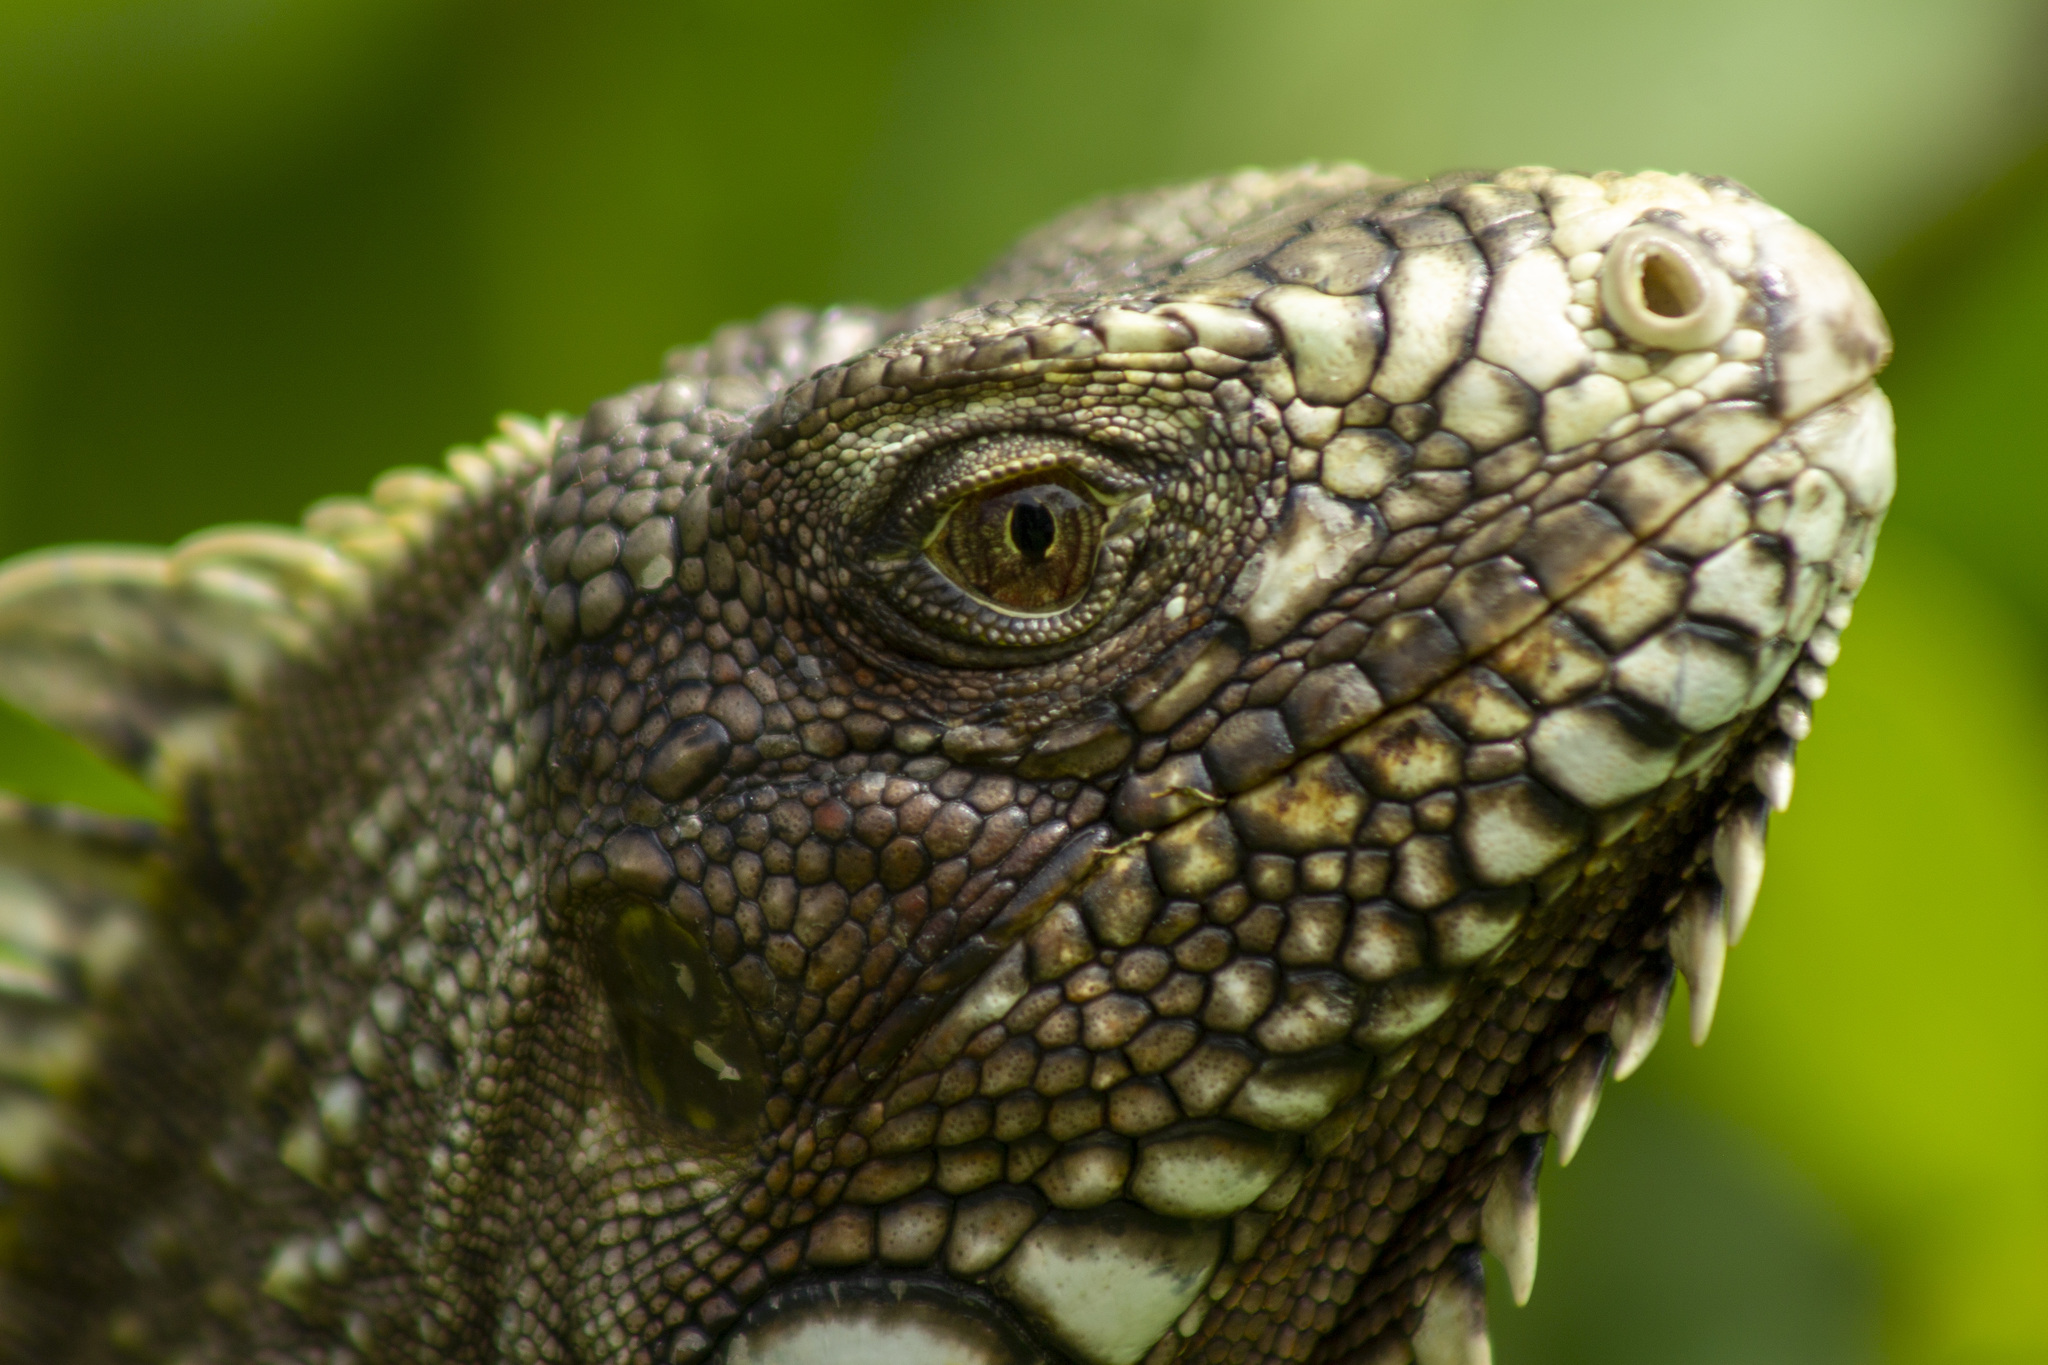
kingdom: Animalia
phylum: Chordata
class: Squamata
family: Iguanidae
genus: Iguana
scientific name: Iguana iguana
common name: Green iguana
